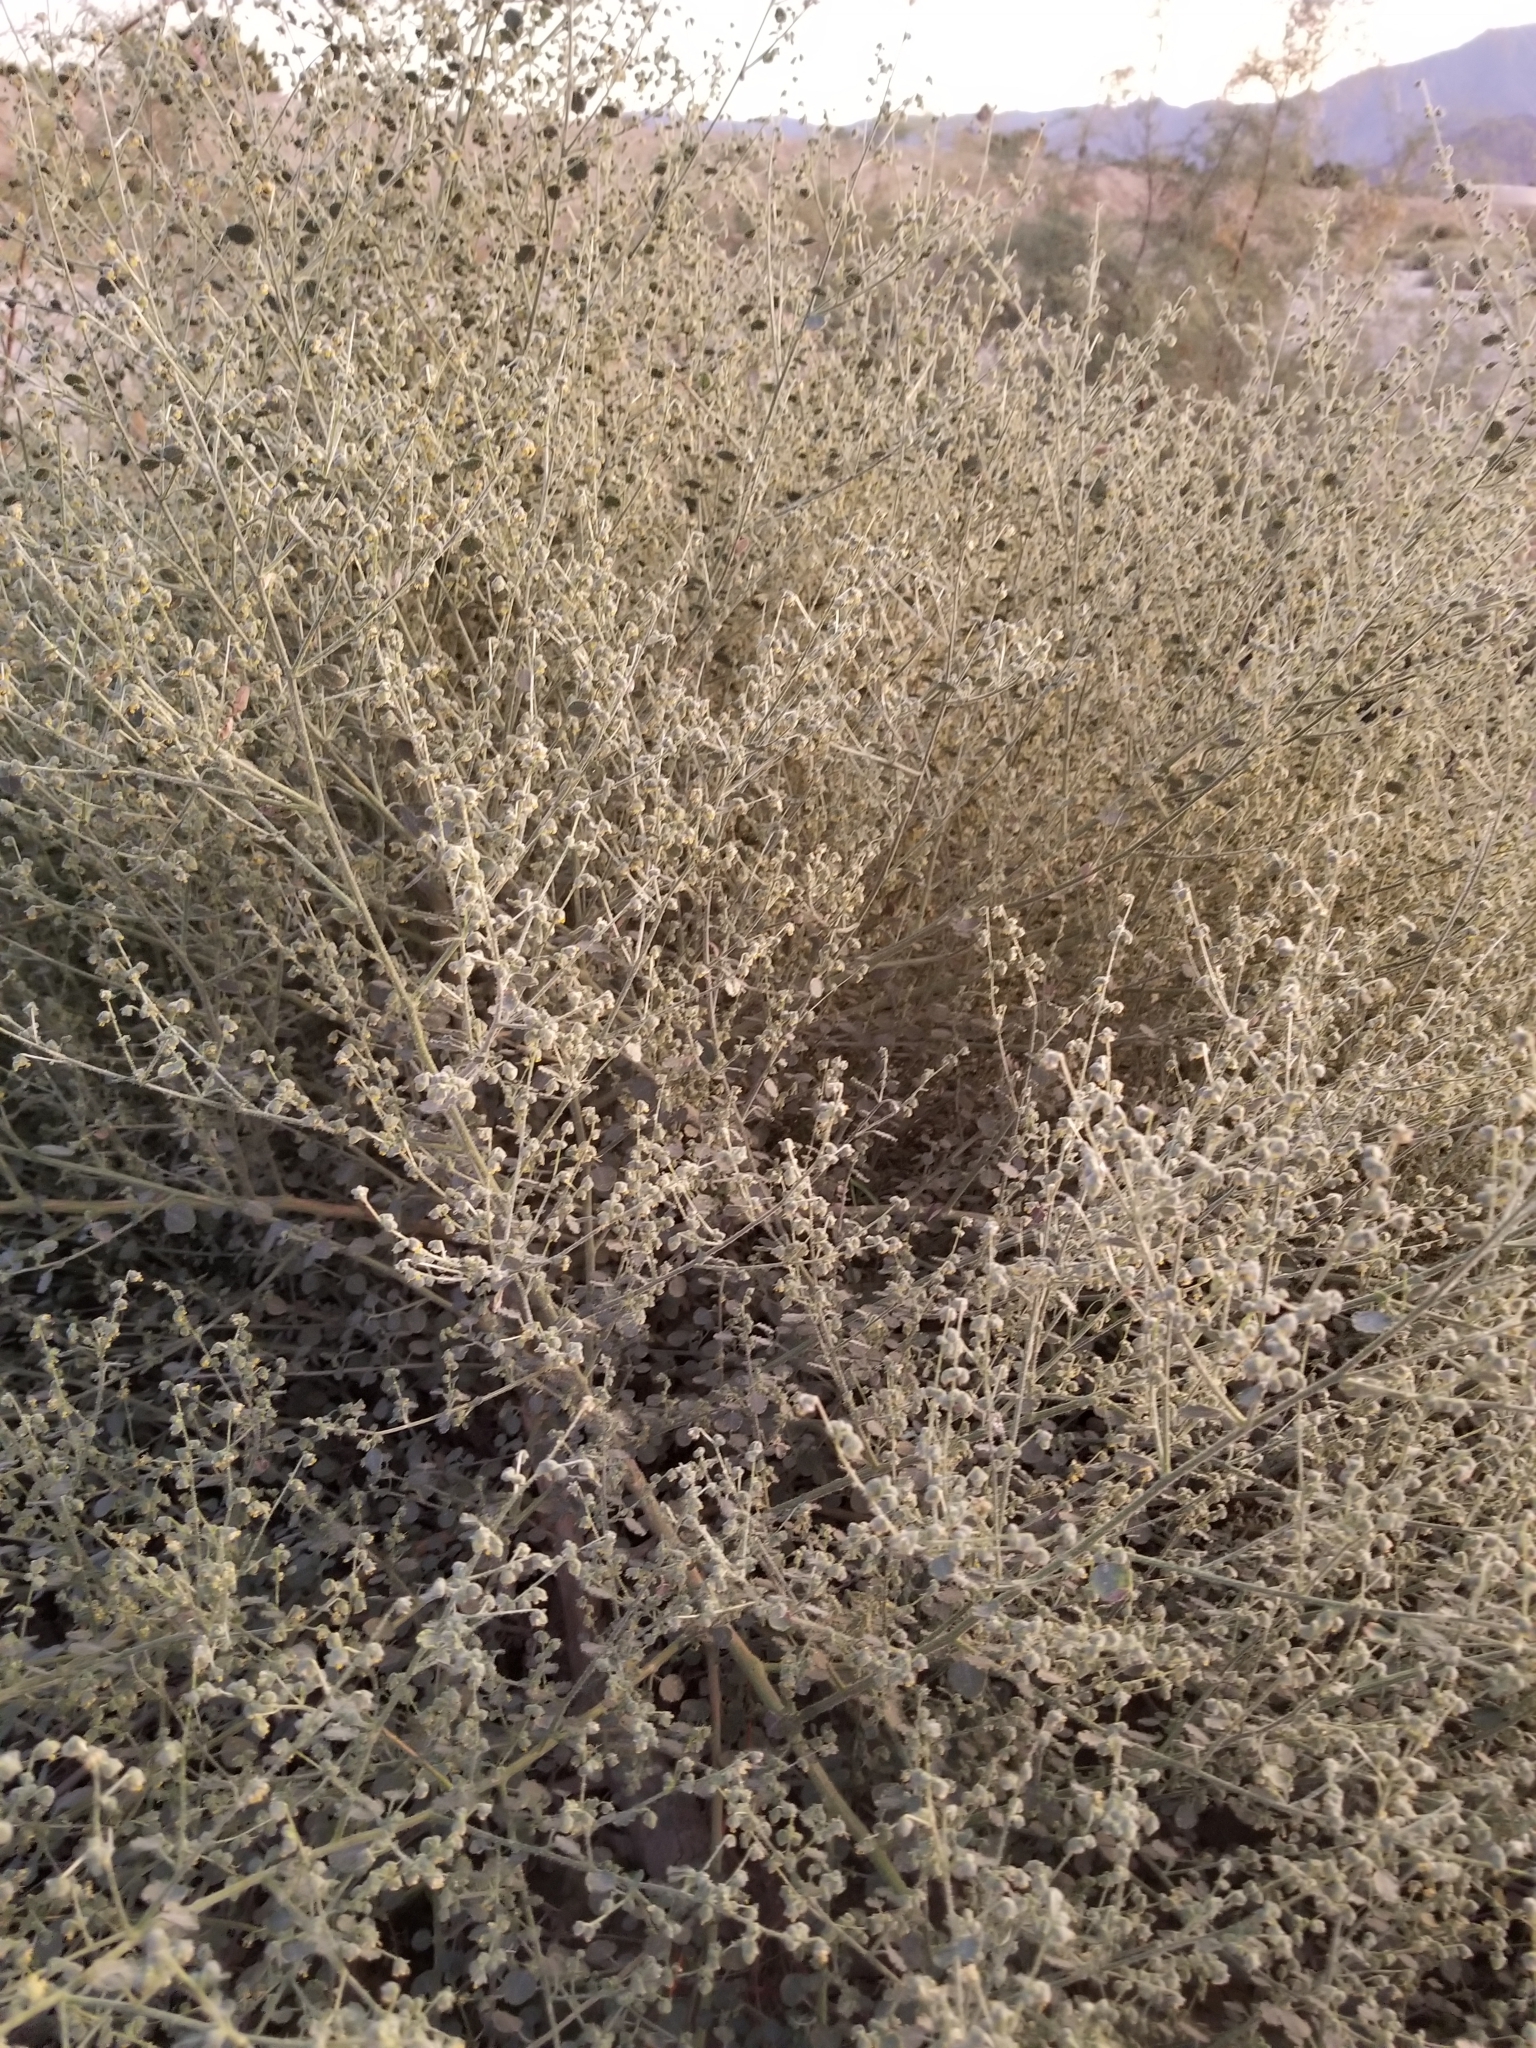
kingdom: Plantae
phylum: Tracheophyta
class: Magnoliopsida
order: Asterales
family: Asteraceae
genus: Dicoria
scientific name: Dicoria canescens
